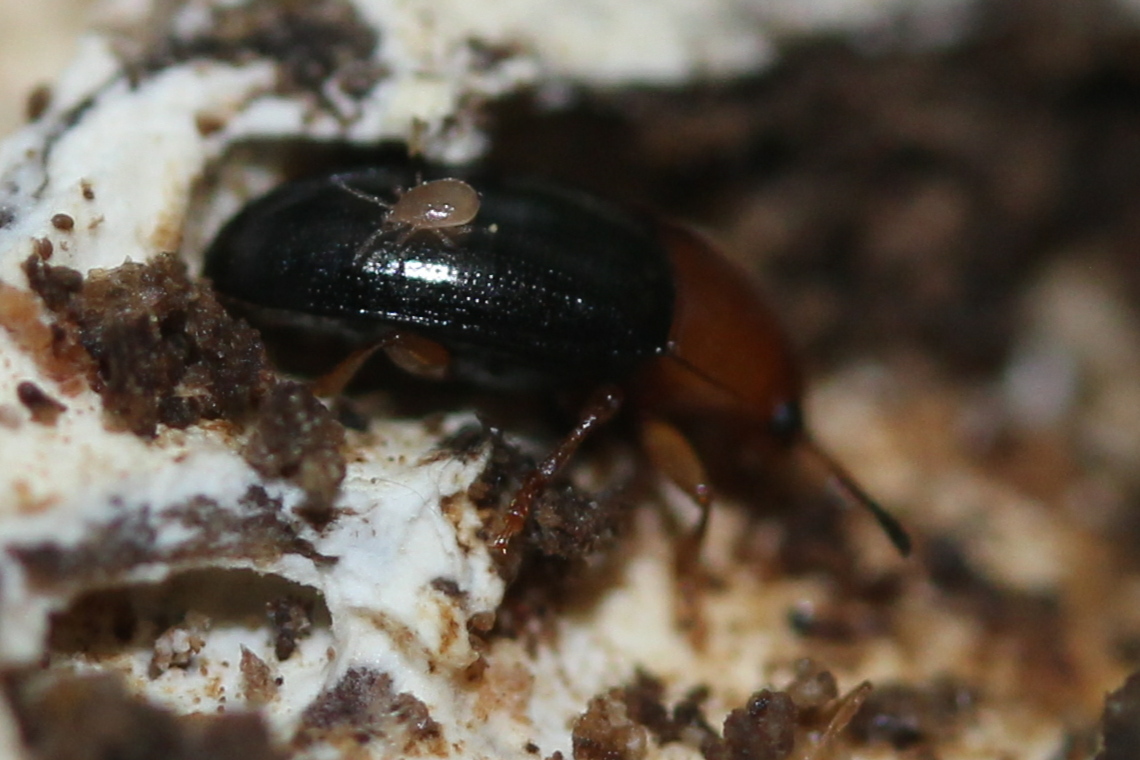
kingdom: Animalia
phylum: Arthropoda
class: Insecta
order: Coleoptera
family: Erotylidae
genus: Triplax
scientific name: Triplax flavicollis
